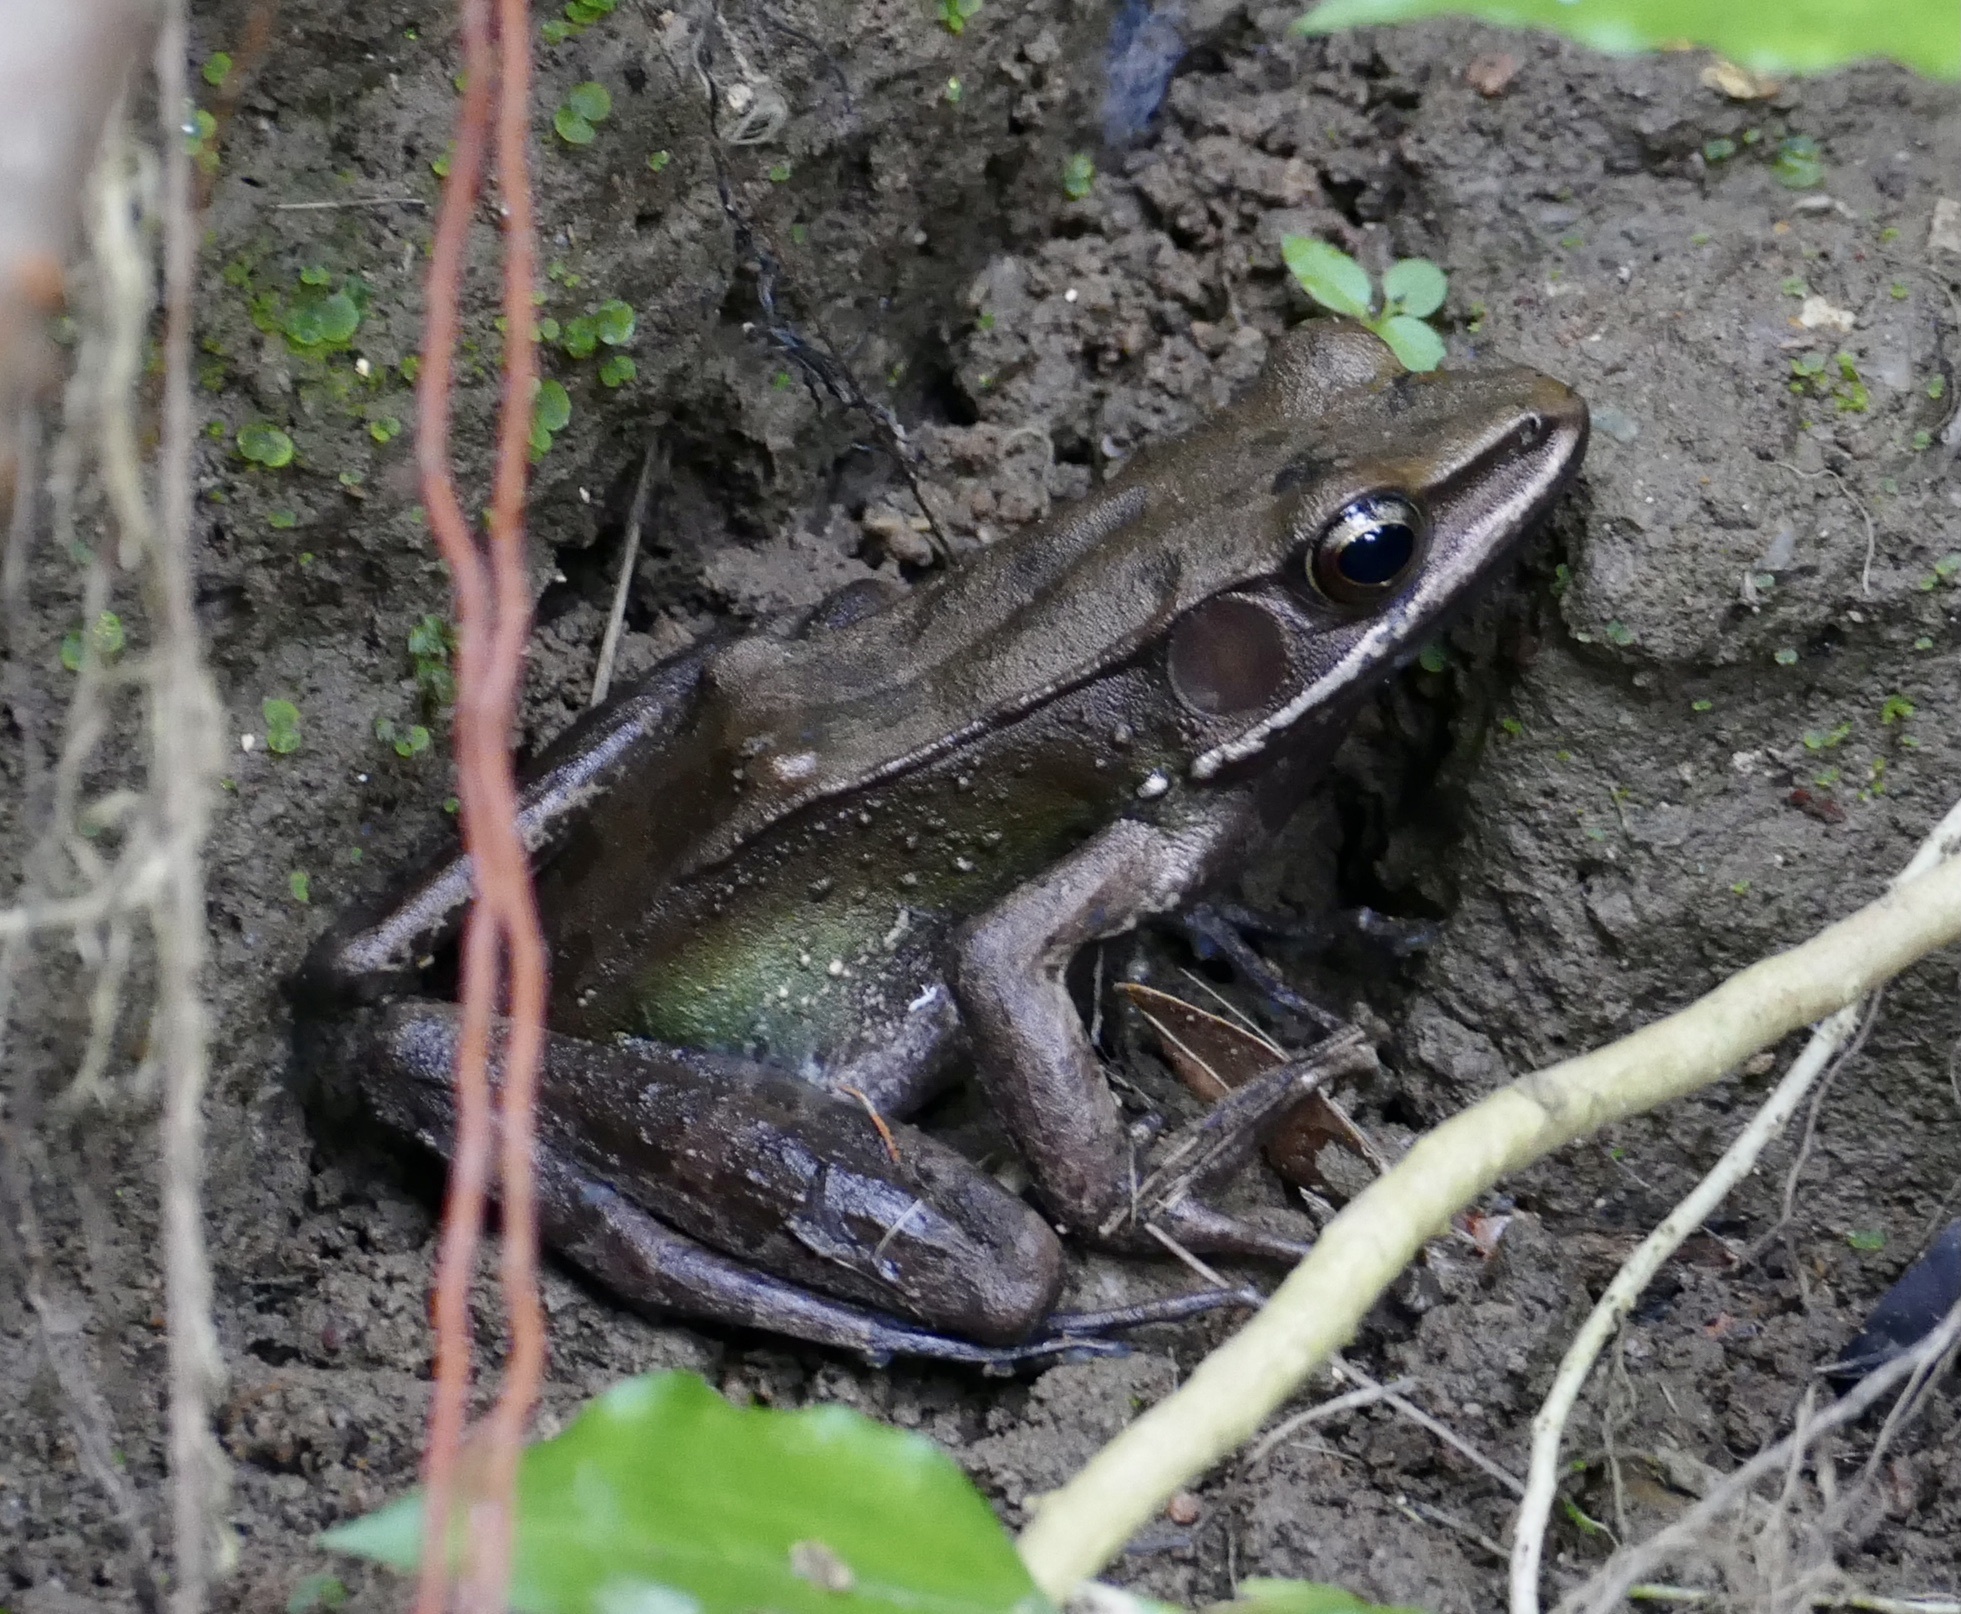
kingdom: Animalia
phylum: Chordata
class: Amphibia
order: Anura
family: Ranidae
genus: Amnirana
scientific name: Amnirana parva
